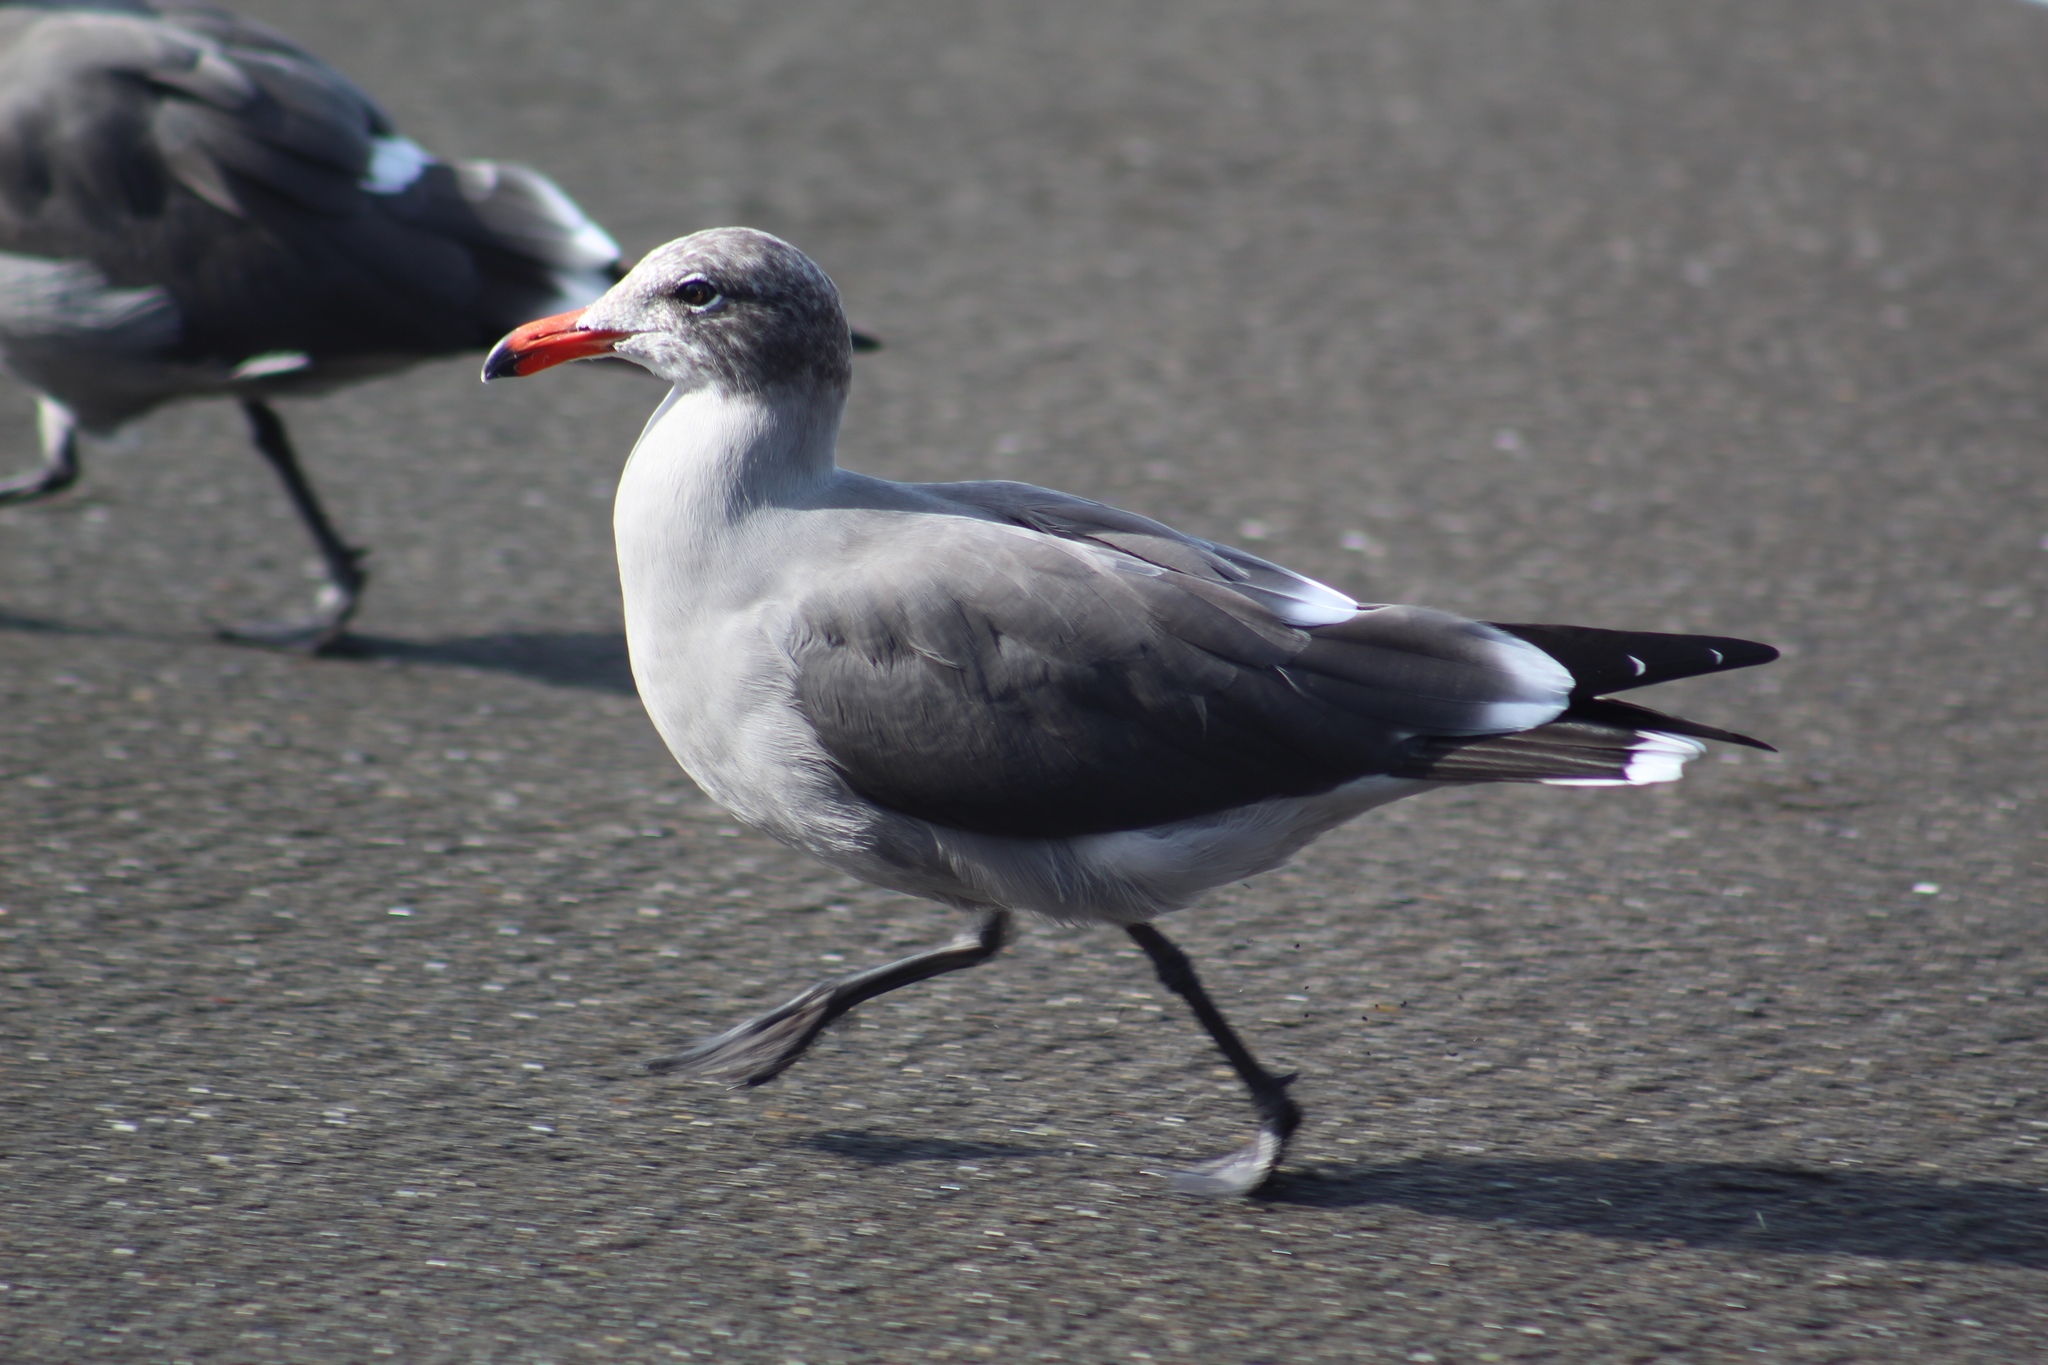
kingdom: Animalia
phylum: Chordata
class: Aves
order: Charadriiformes
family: Laridae
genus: Larus
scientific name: Larus heermanni
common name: Heermann's gull
